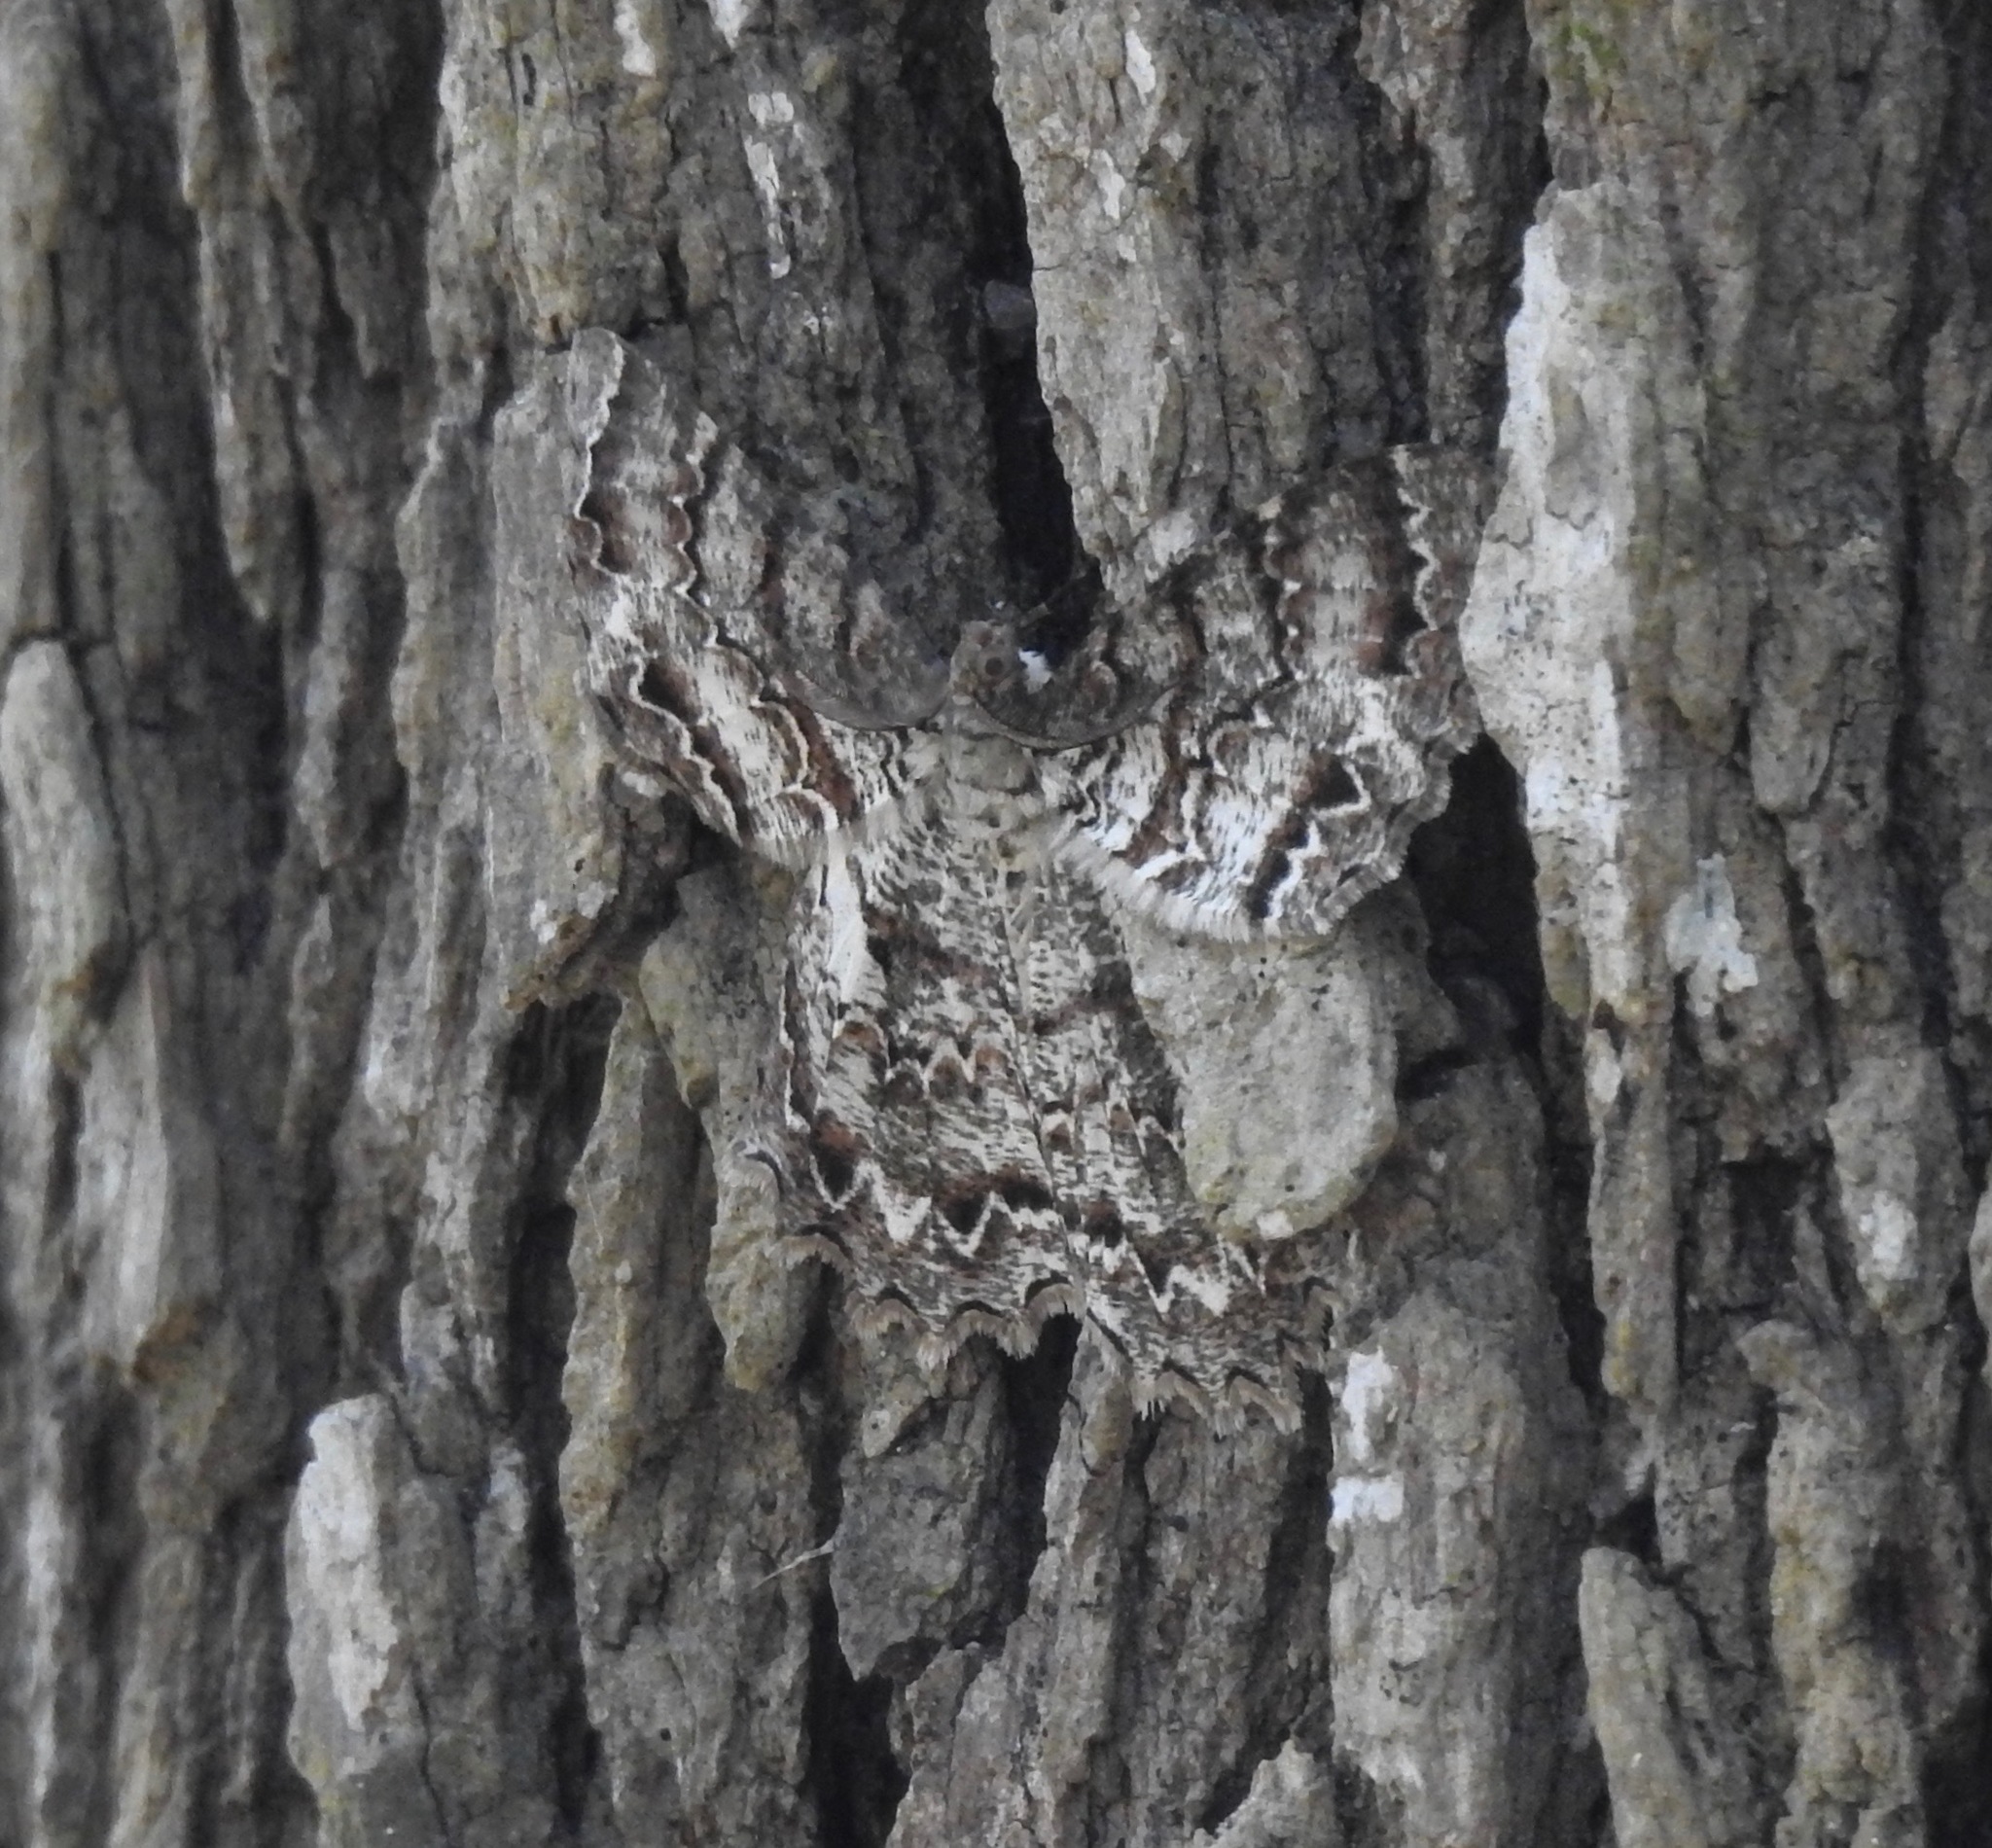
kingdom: Animalia
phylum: Arthropoda
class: Insecta
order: Lepidoptera
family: Geometridae
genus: Epimecis
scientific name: Epimecis hortaria
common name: Tulip-tree beauty
